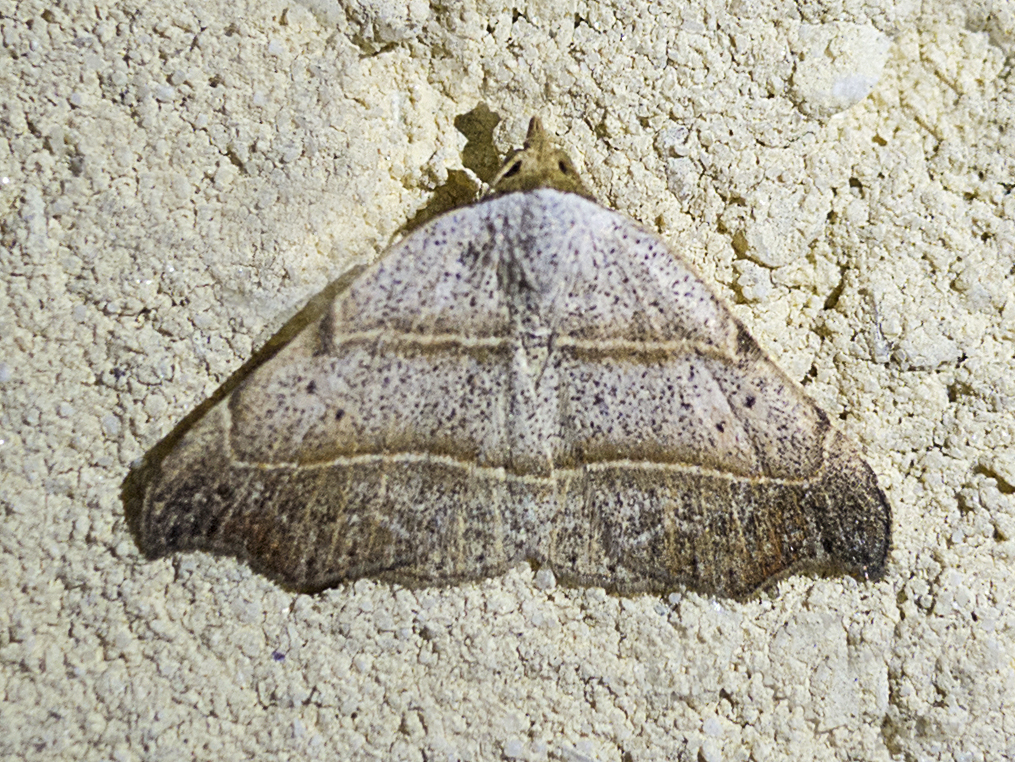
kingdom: Animalia
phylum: Arthropoda
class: Insecta
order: Lepidoptera
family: Erebidae
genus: Laspeyria
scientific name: Laspeyria flexula
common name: Beautiful hook-tip
